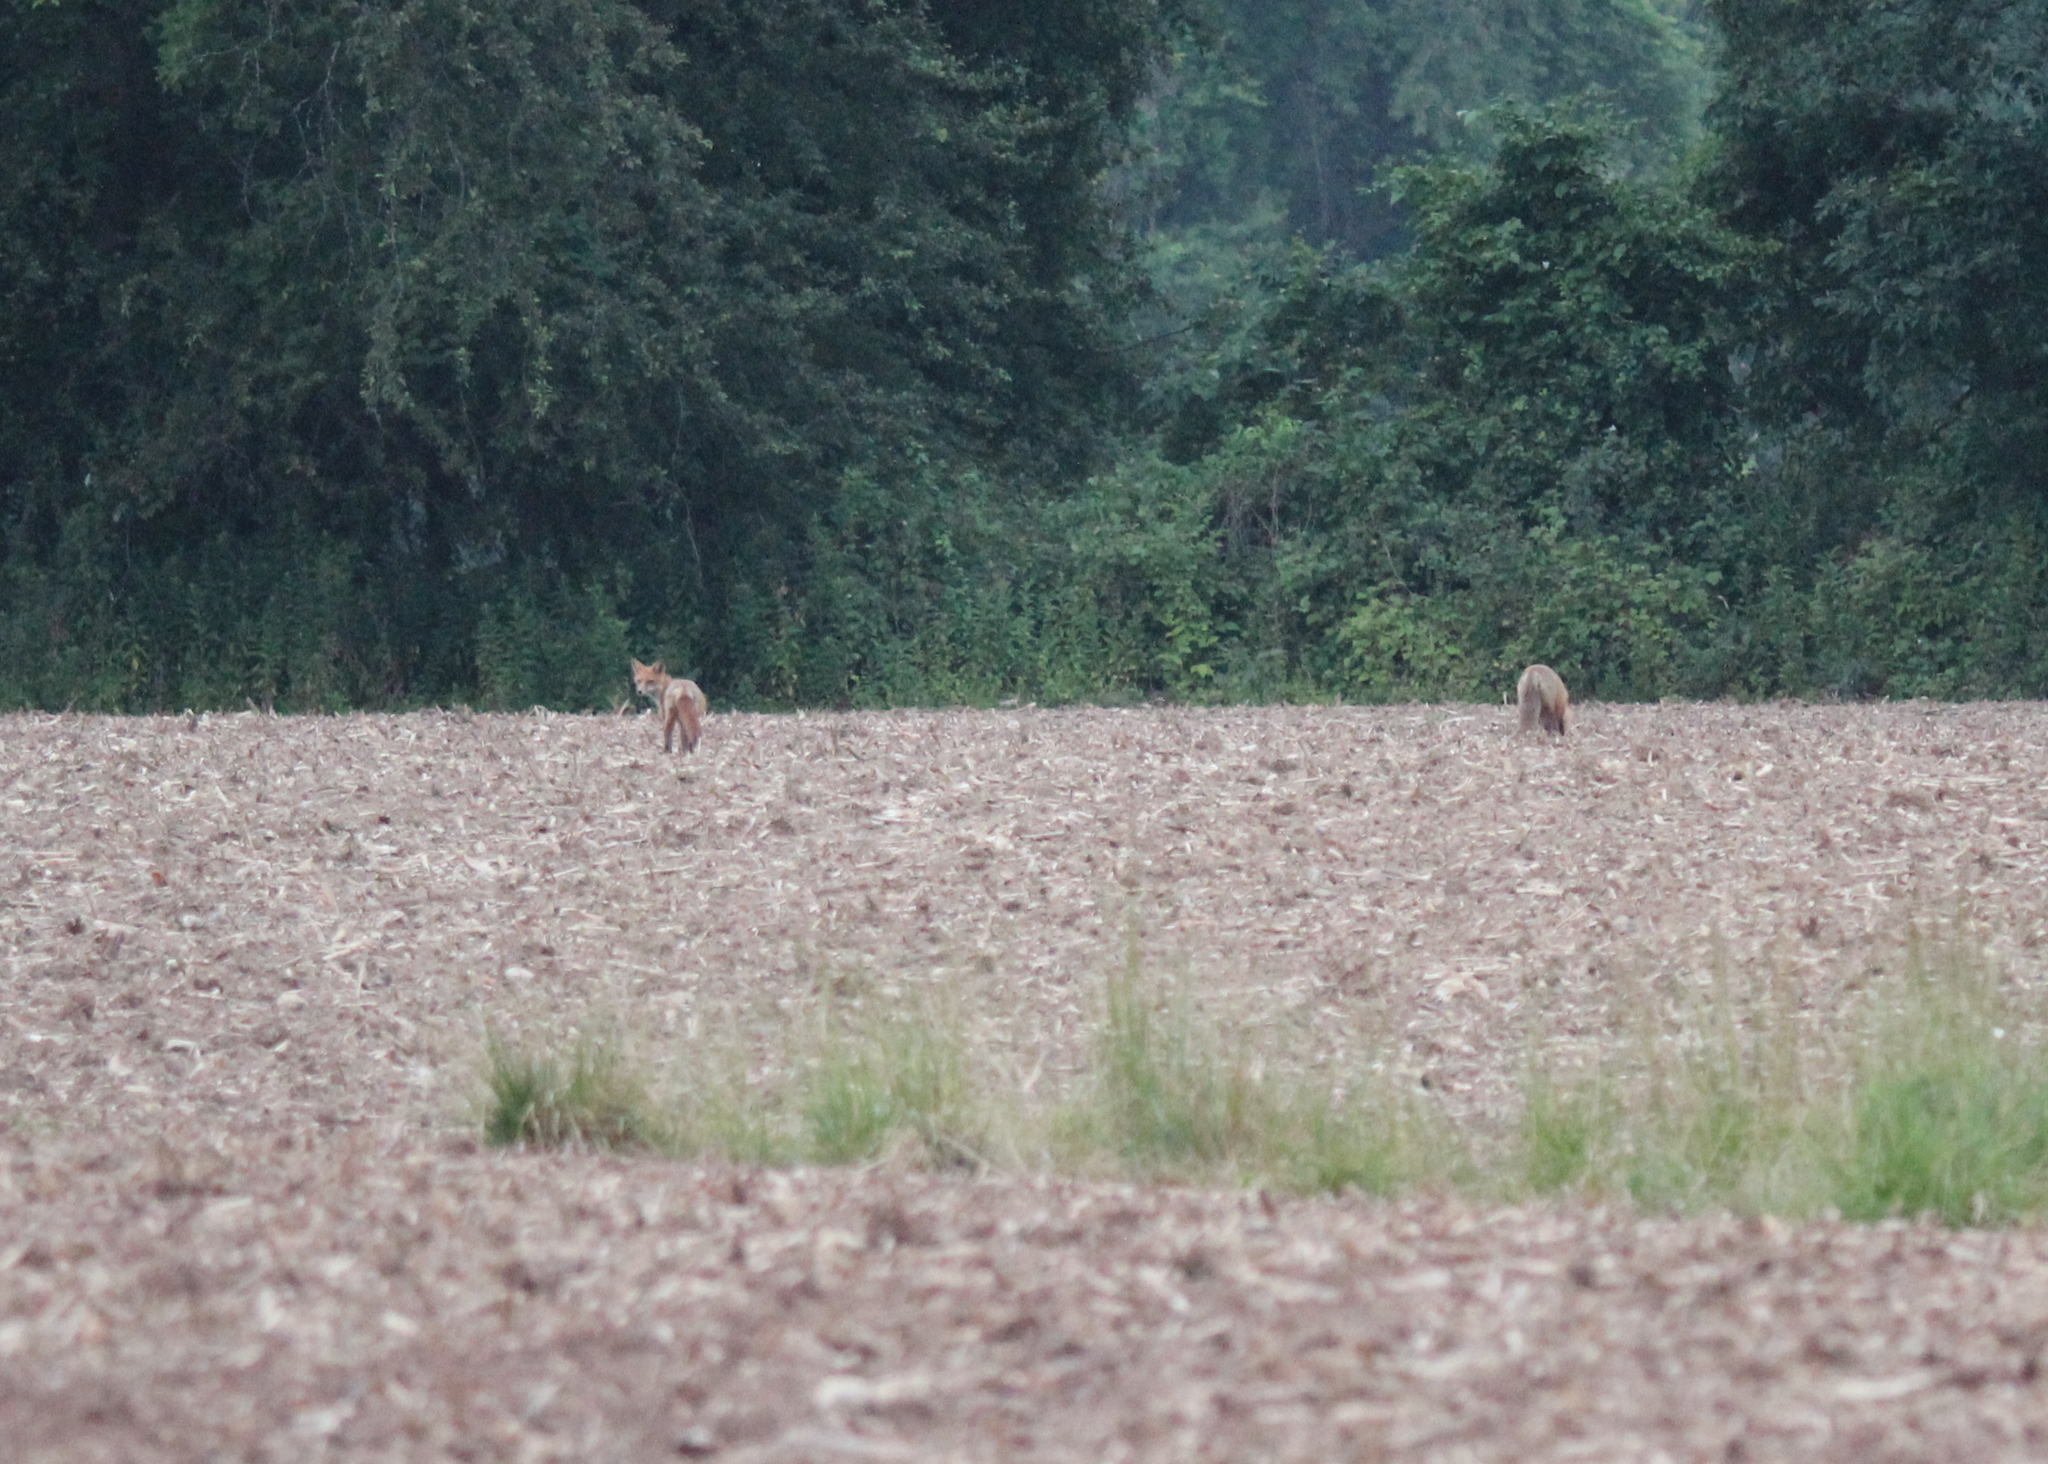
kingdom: Animalia
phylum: Chordata
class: Mammalia
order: Carnivora
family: Canidae
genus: Vulpes
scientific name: Vulpes vulpes
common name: Red fox
